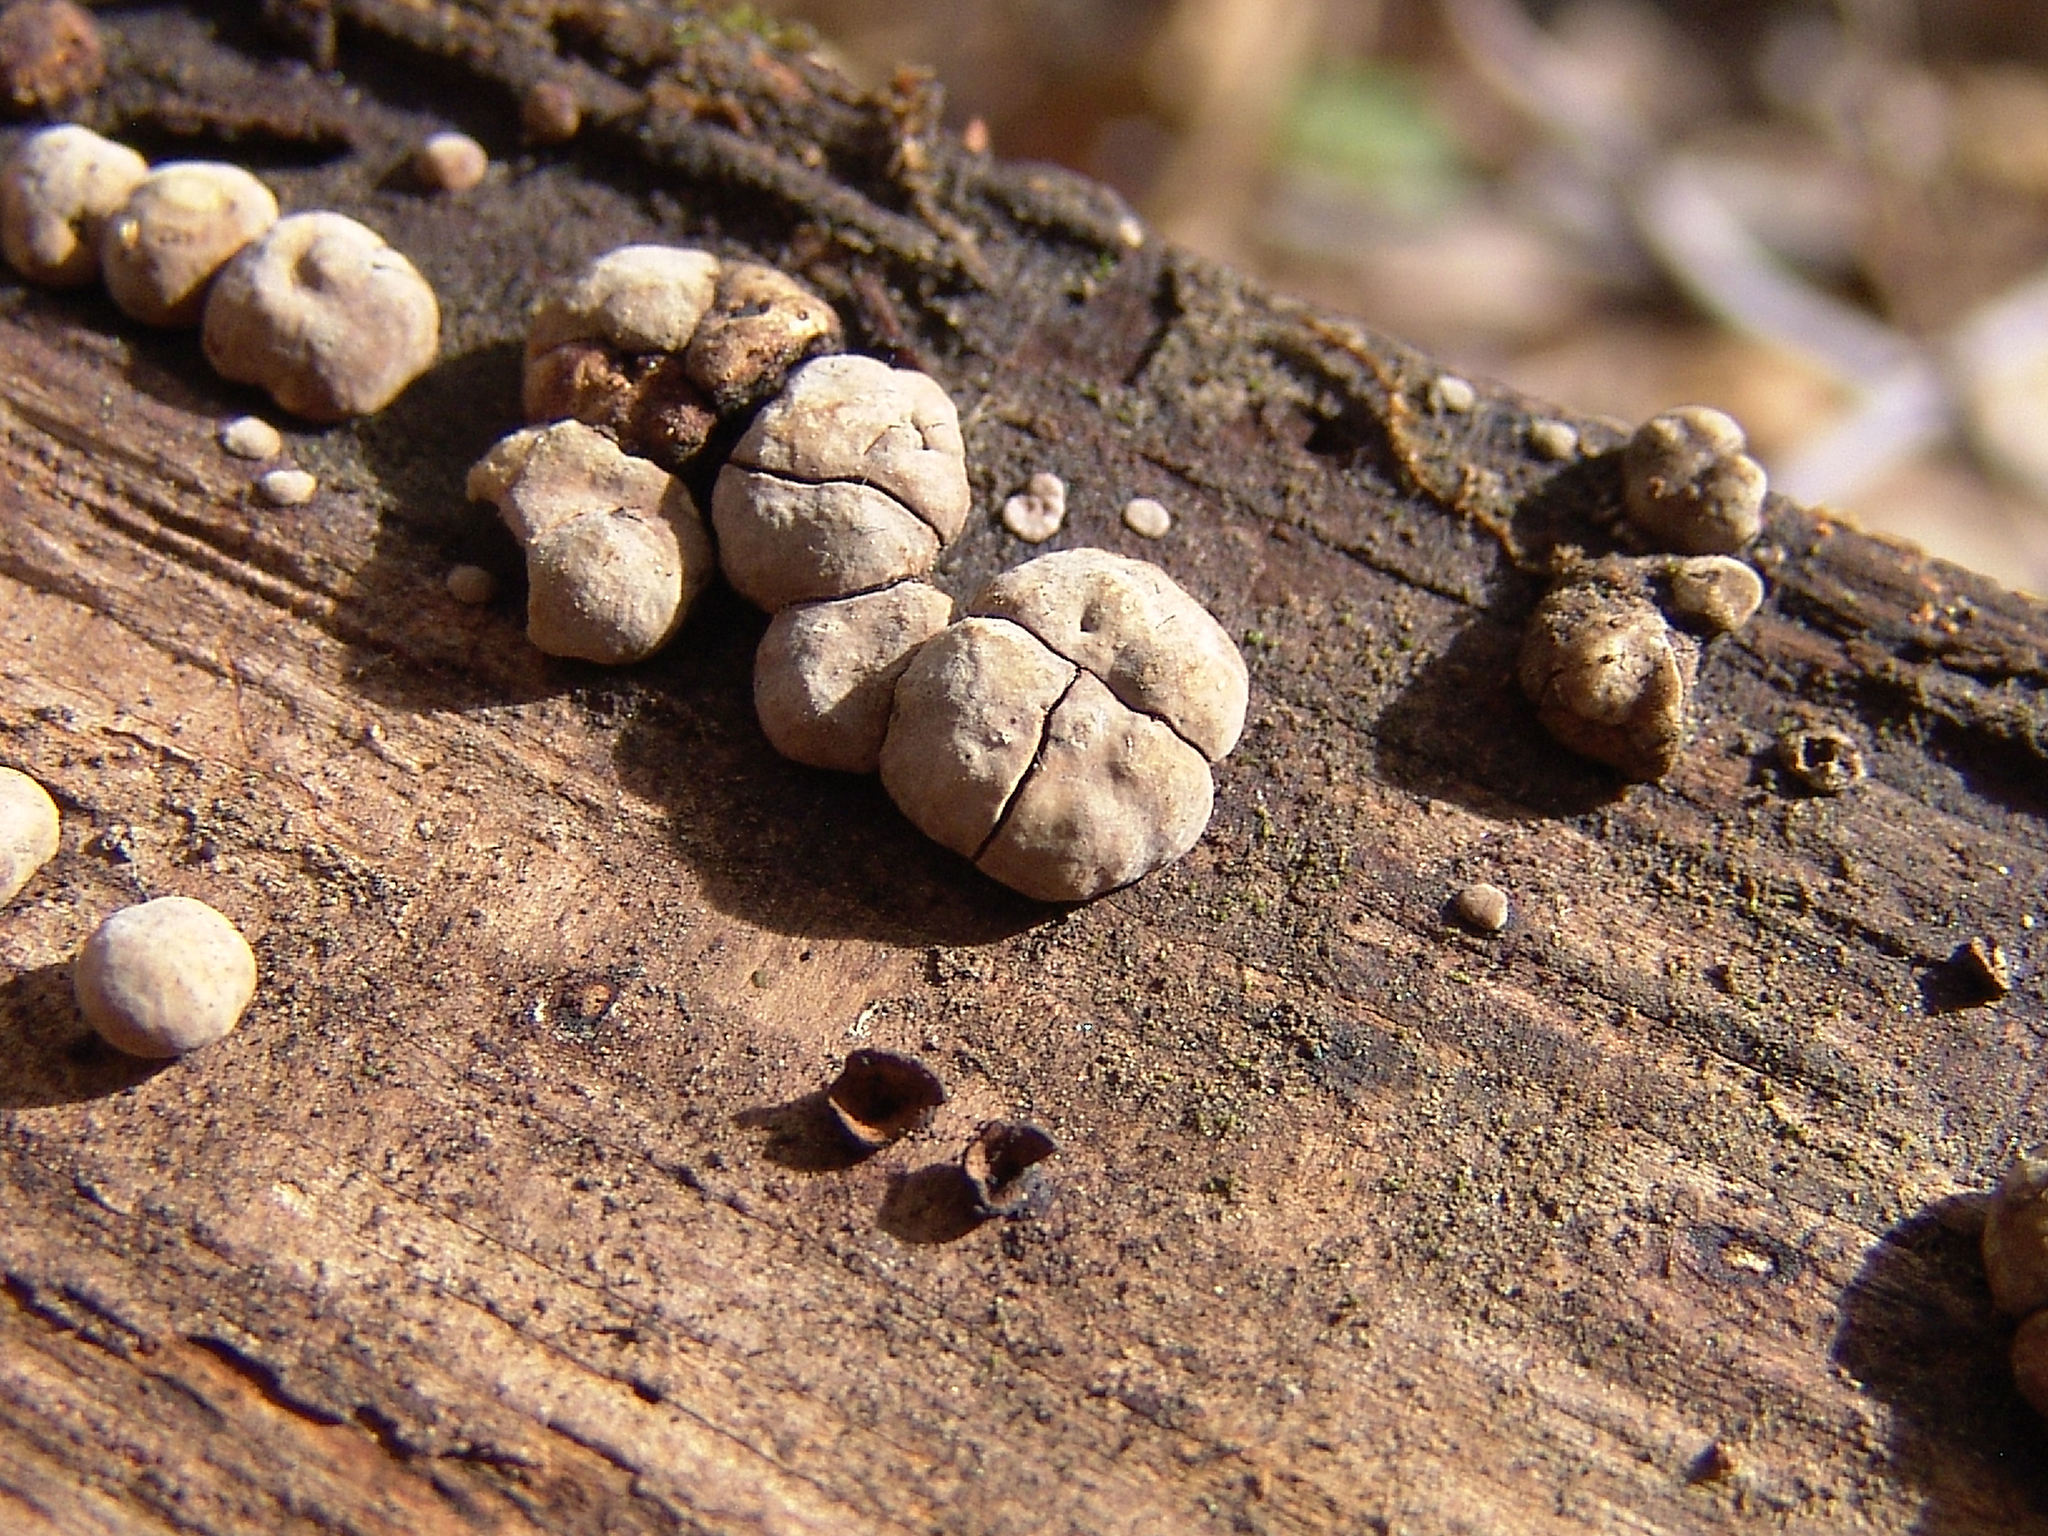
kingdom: Fungi
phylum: Basidiomycota
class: Agaricomycetes
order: Russulales
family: Stereaceae
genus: Xylobolus
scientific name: Xylobolus frustulatus
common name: Ceramic parchment
